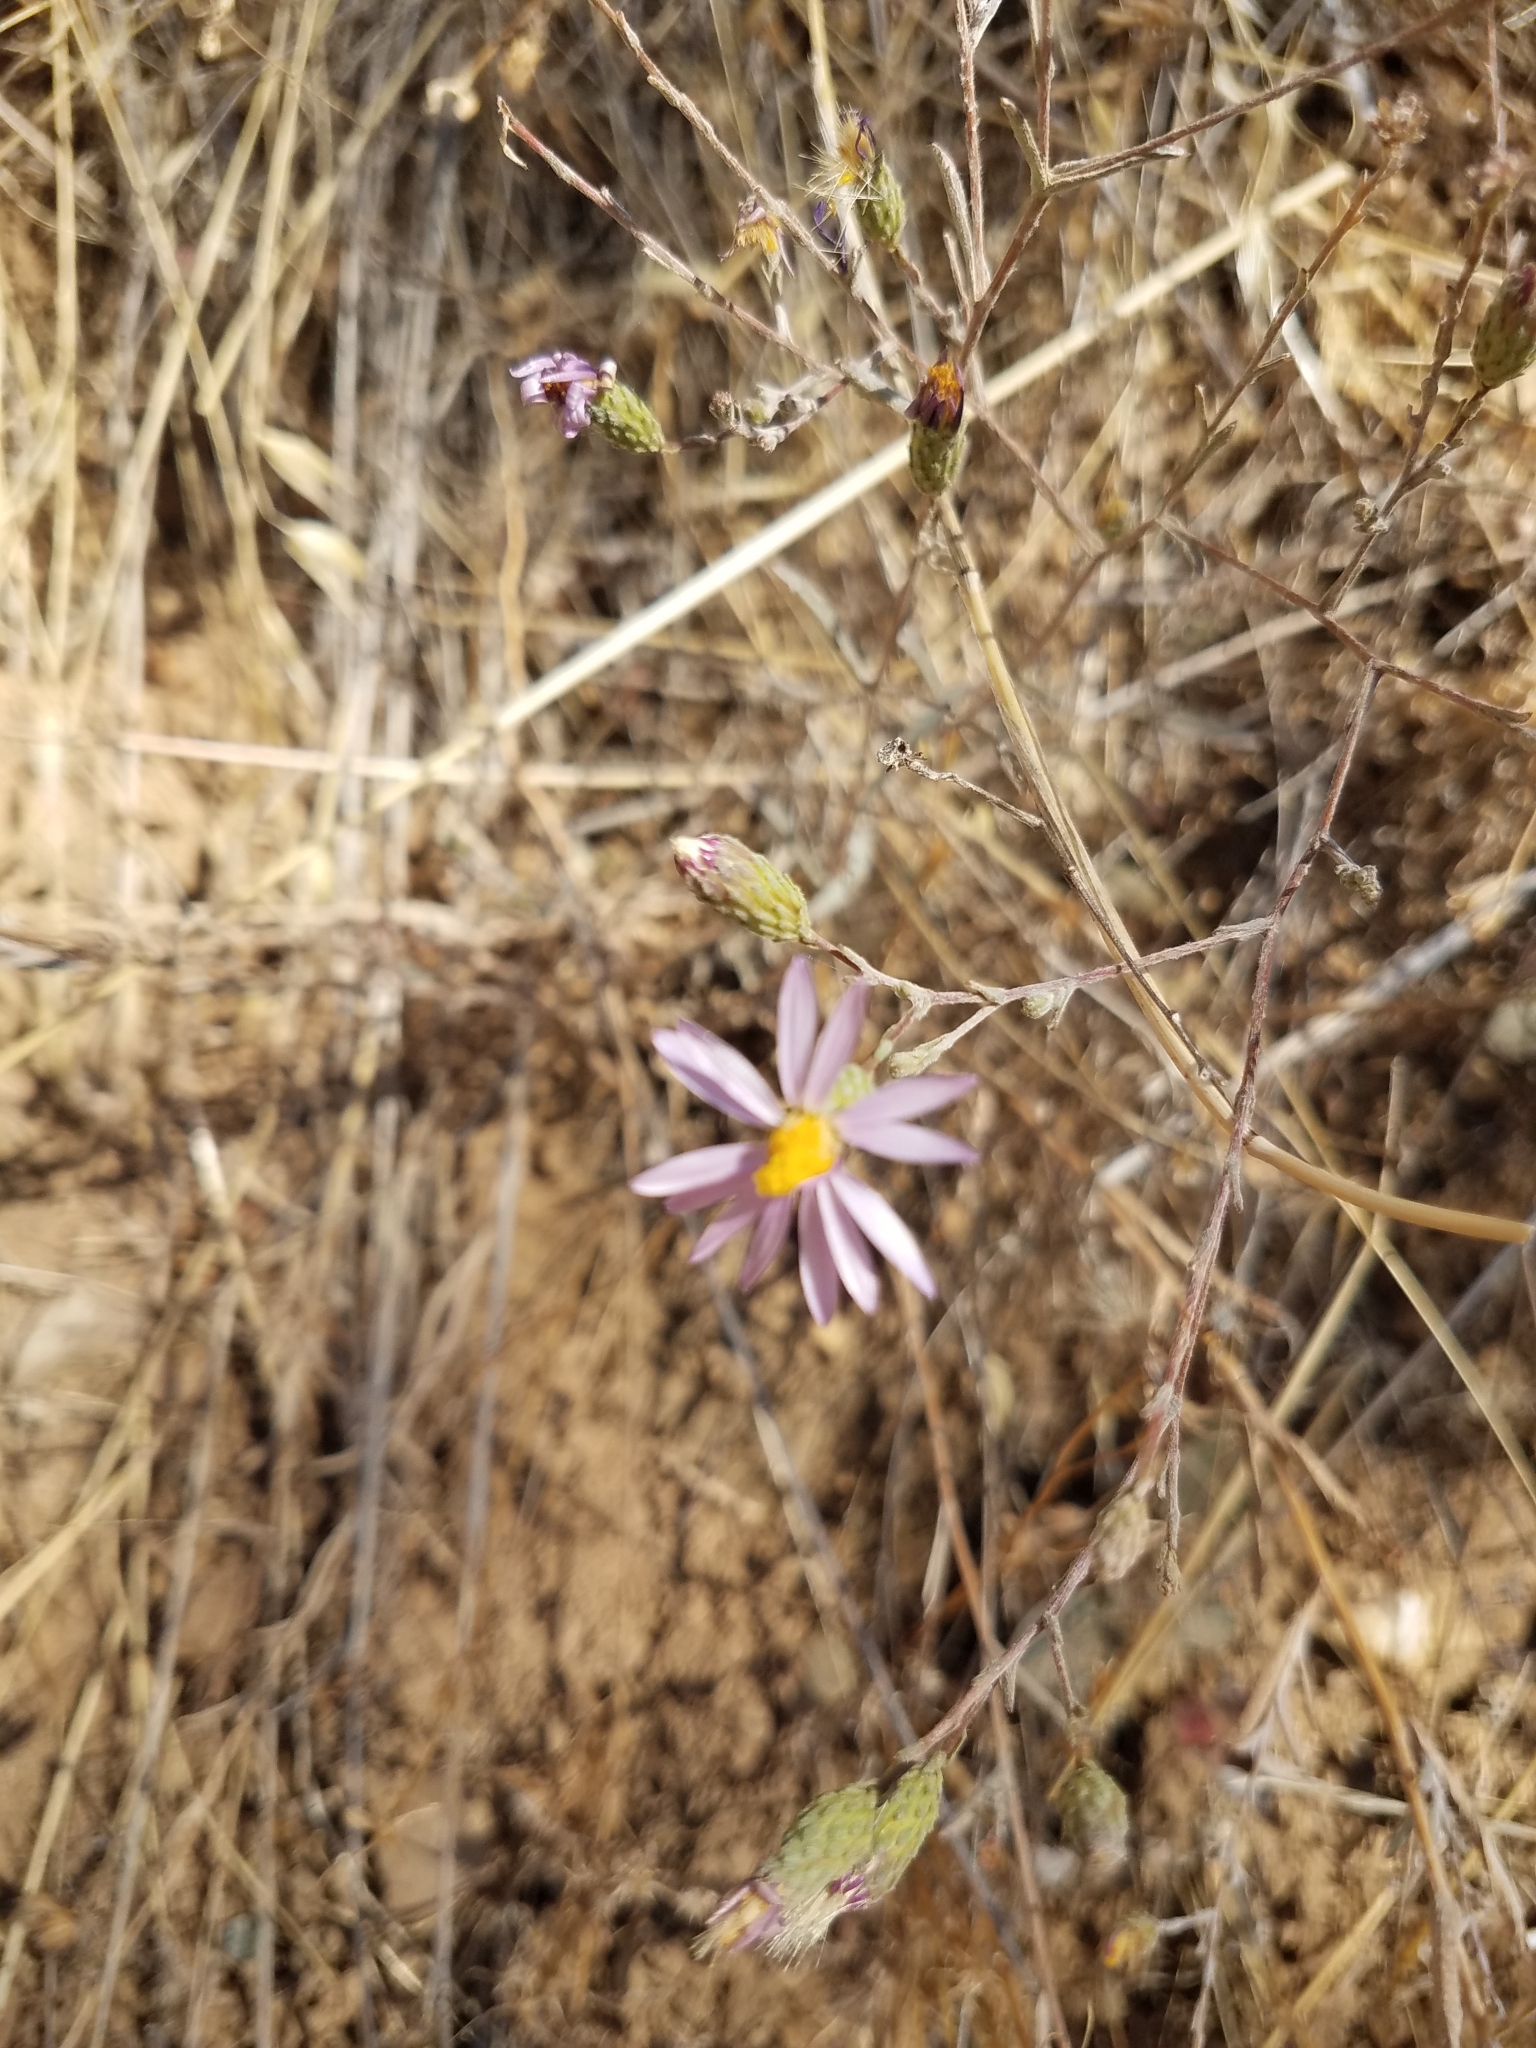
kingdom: Plantae
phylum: Tracheophyta
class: Magnoliopsida
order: Asterales
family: Asteraceae
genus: Corethrogyne
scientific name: Corethrogyne filaginifolia
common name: Sand-aster
